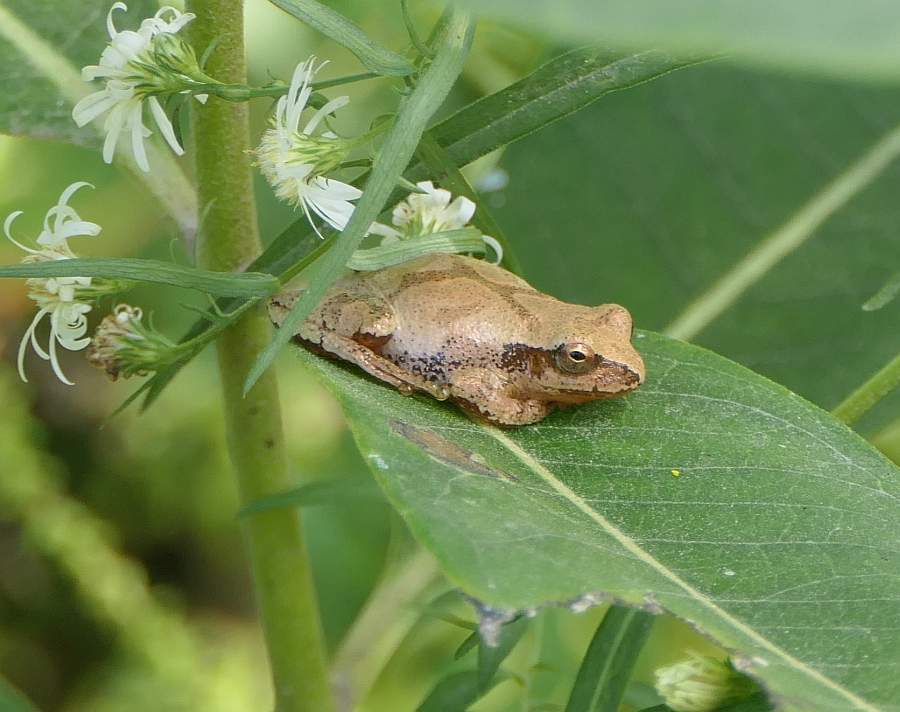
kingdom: Animalia
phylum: Chordata
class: Amphibia
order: Anura
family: Hylidae
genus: Pseudacris
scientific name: Pseudacris crucifer
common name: Spring peeper
